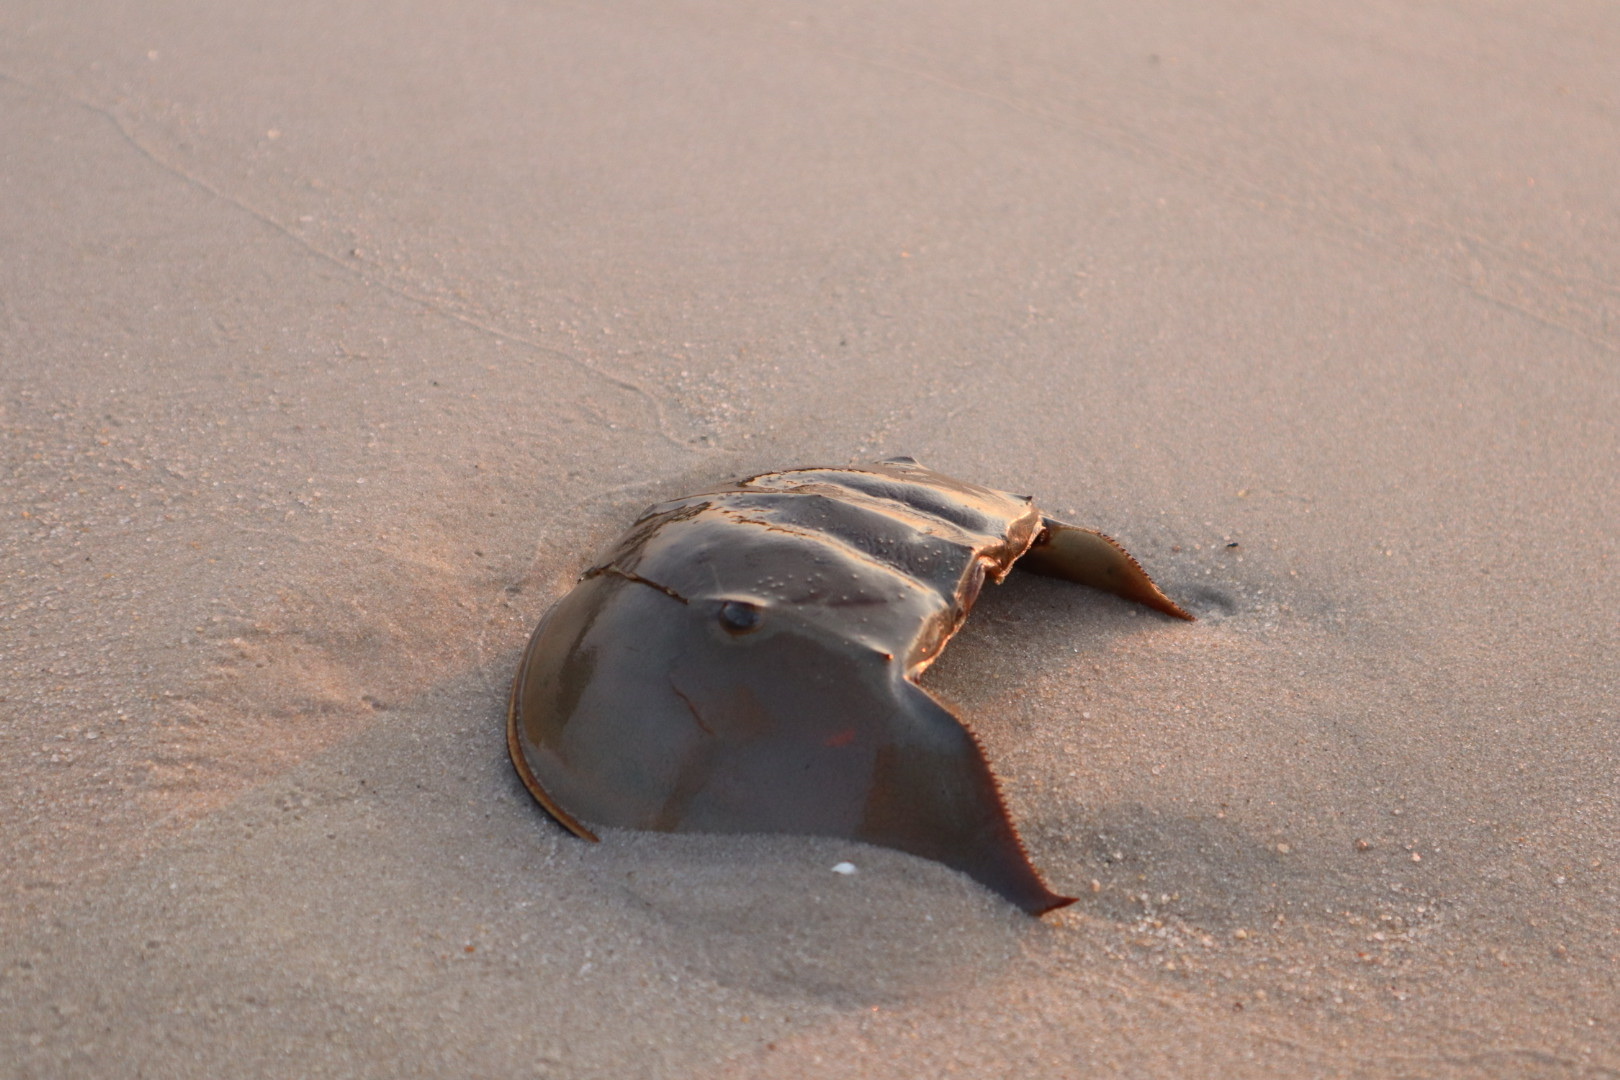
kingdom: Animalia
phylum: Arthropoda
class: Merostomata
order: Xiphosurida
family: Limulidae
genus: Limulus
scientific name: Limulus polyphemus
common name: Horseshoe crab
